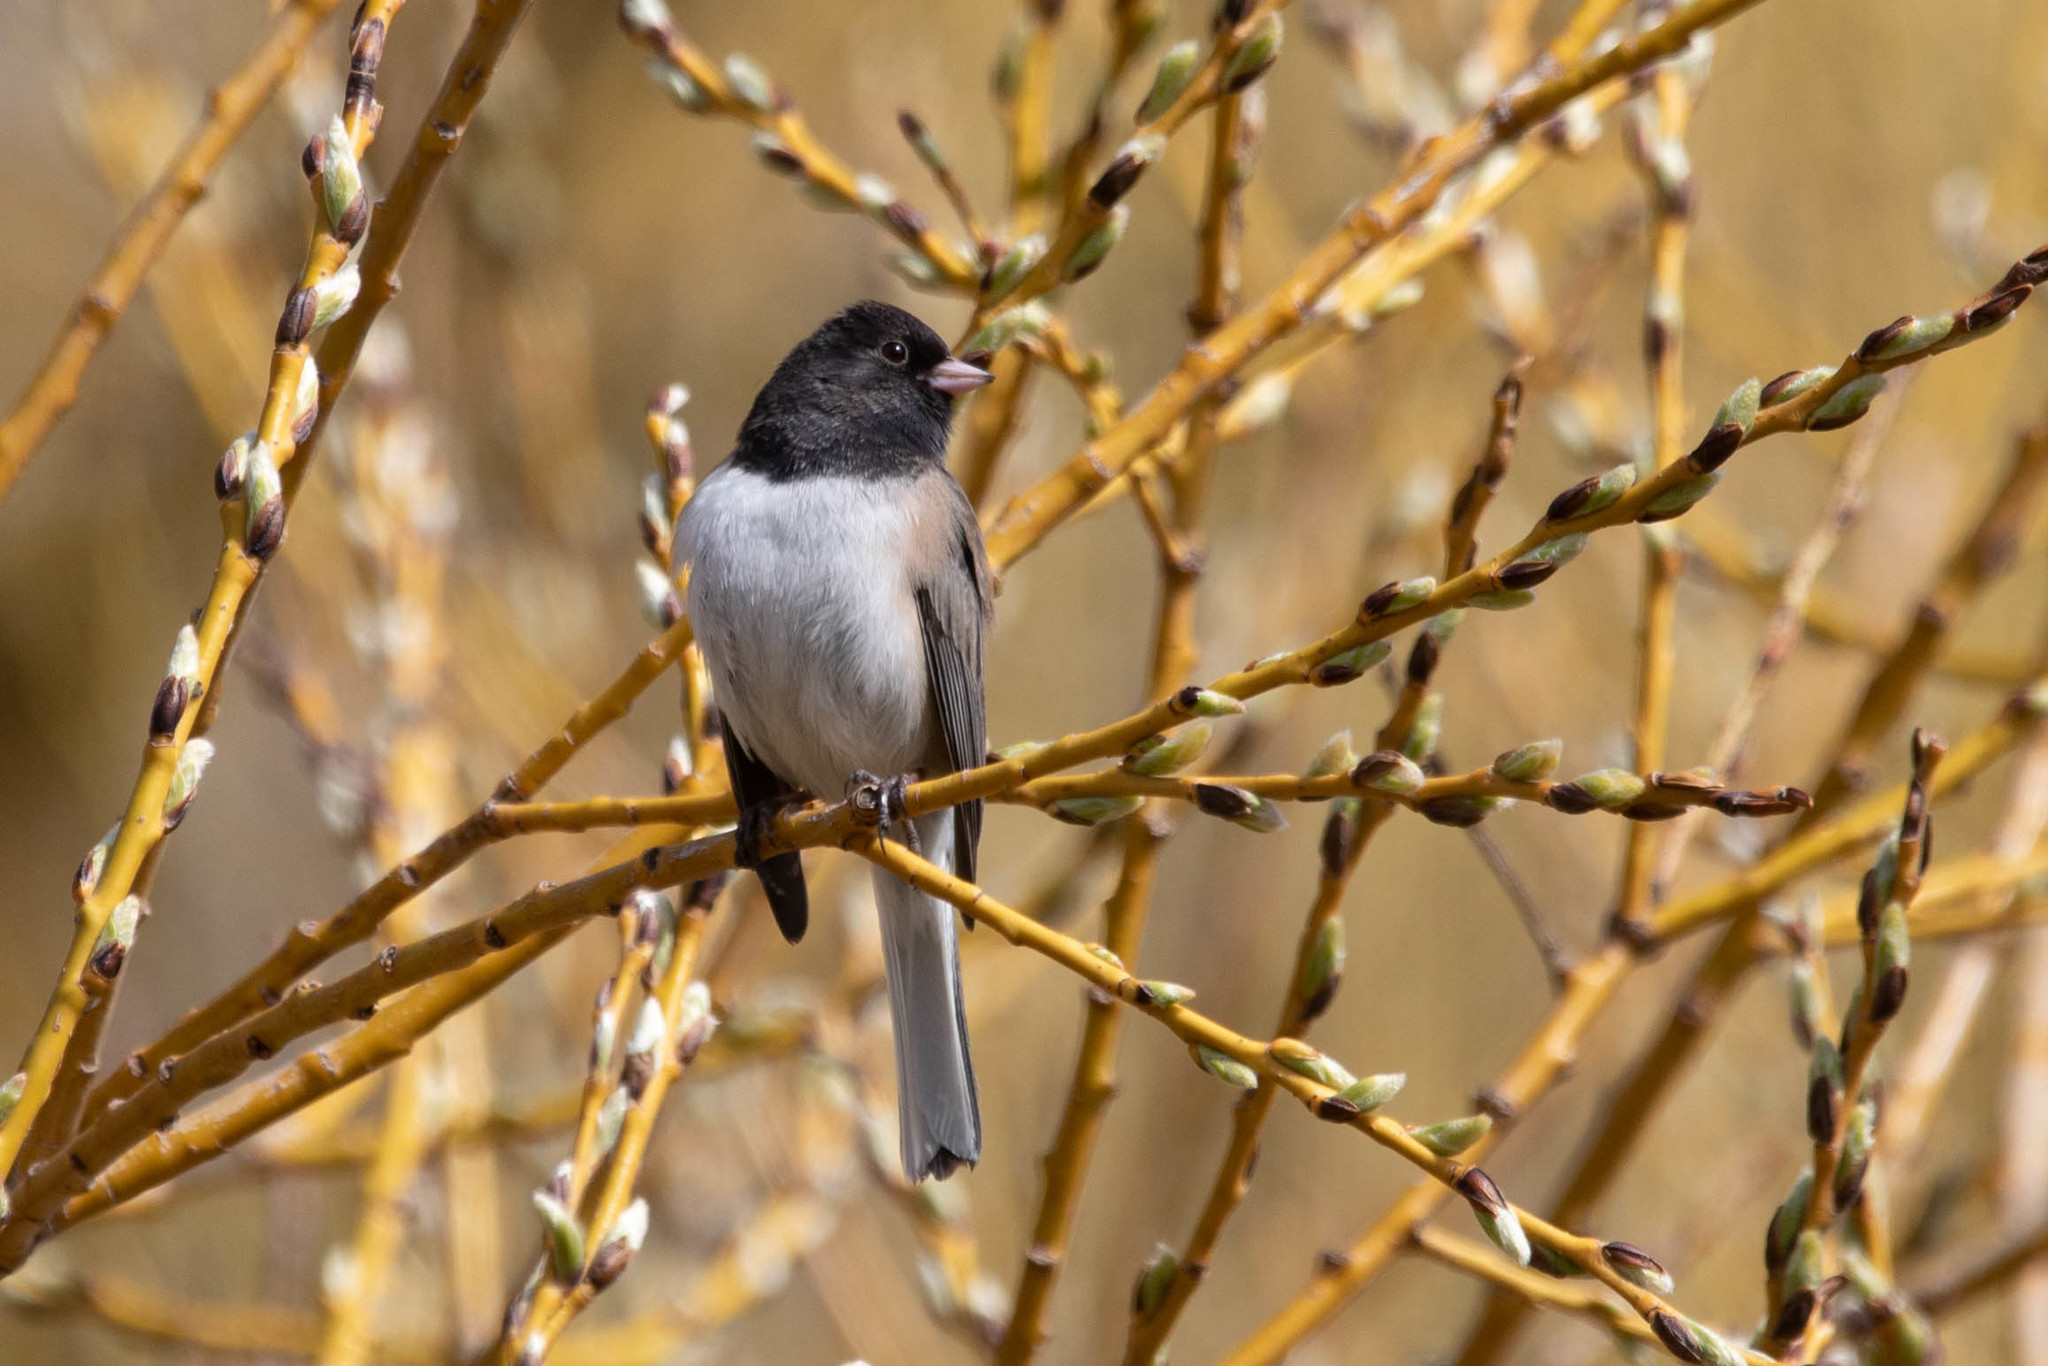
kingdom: Animalia
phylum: Chordata
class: Aves
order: Passeriformes
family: Passerellidae
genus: Junco
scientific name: Junco hyemalis
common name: Dark-eyed junco
